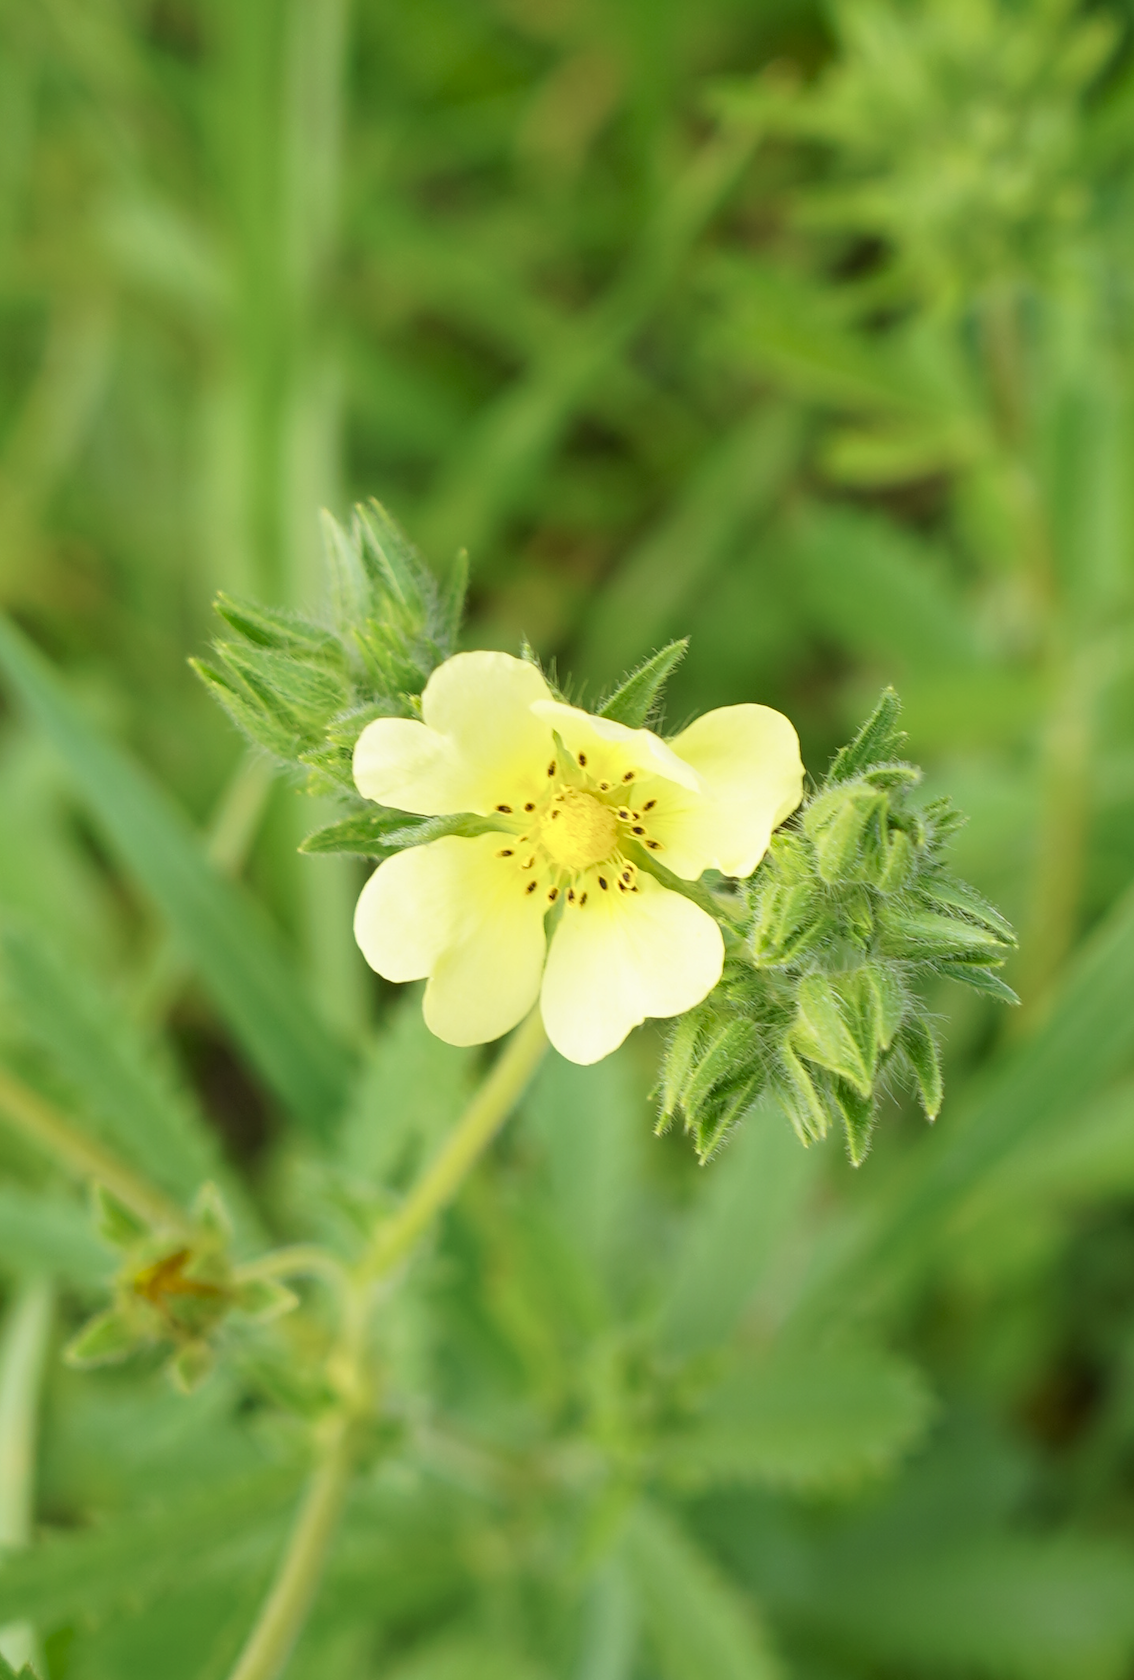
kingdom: Plantae
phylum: Tracheophyta
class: Magnoliopsida
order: Rosales
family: Rosaceae
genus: Potentilla
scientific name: Potentilla recta
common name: Sulphur cinquefoil
